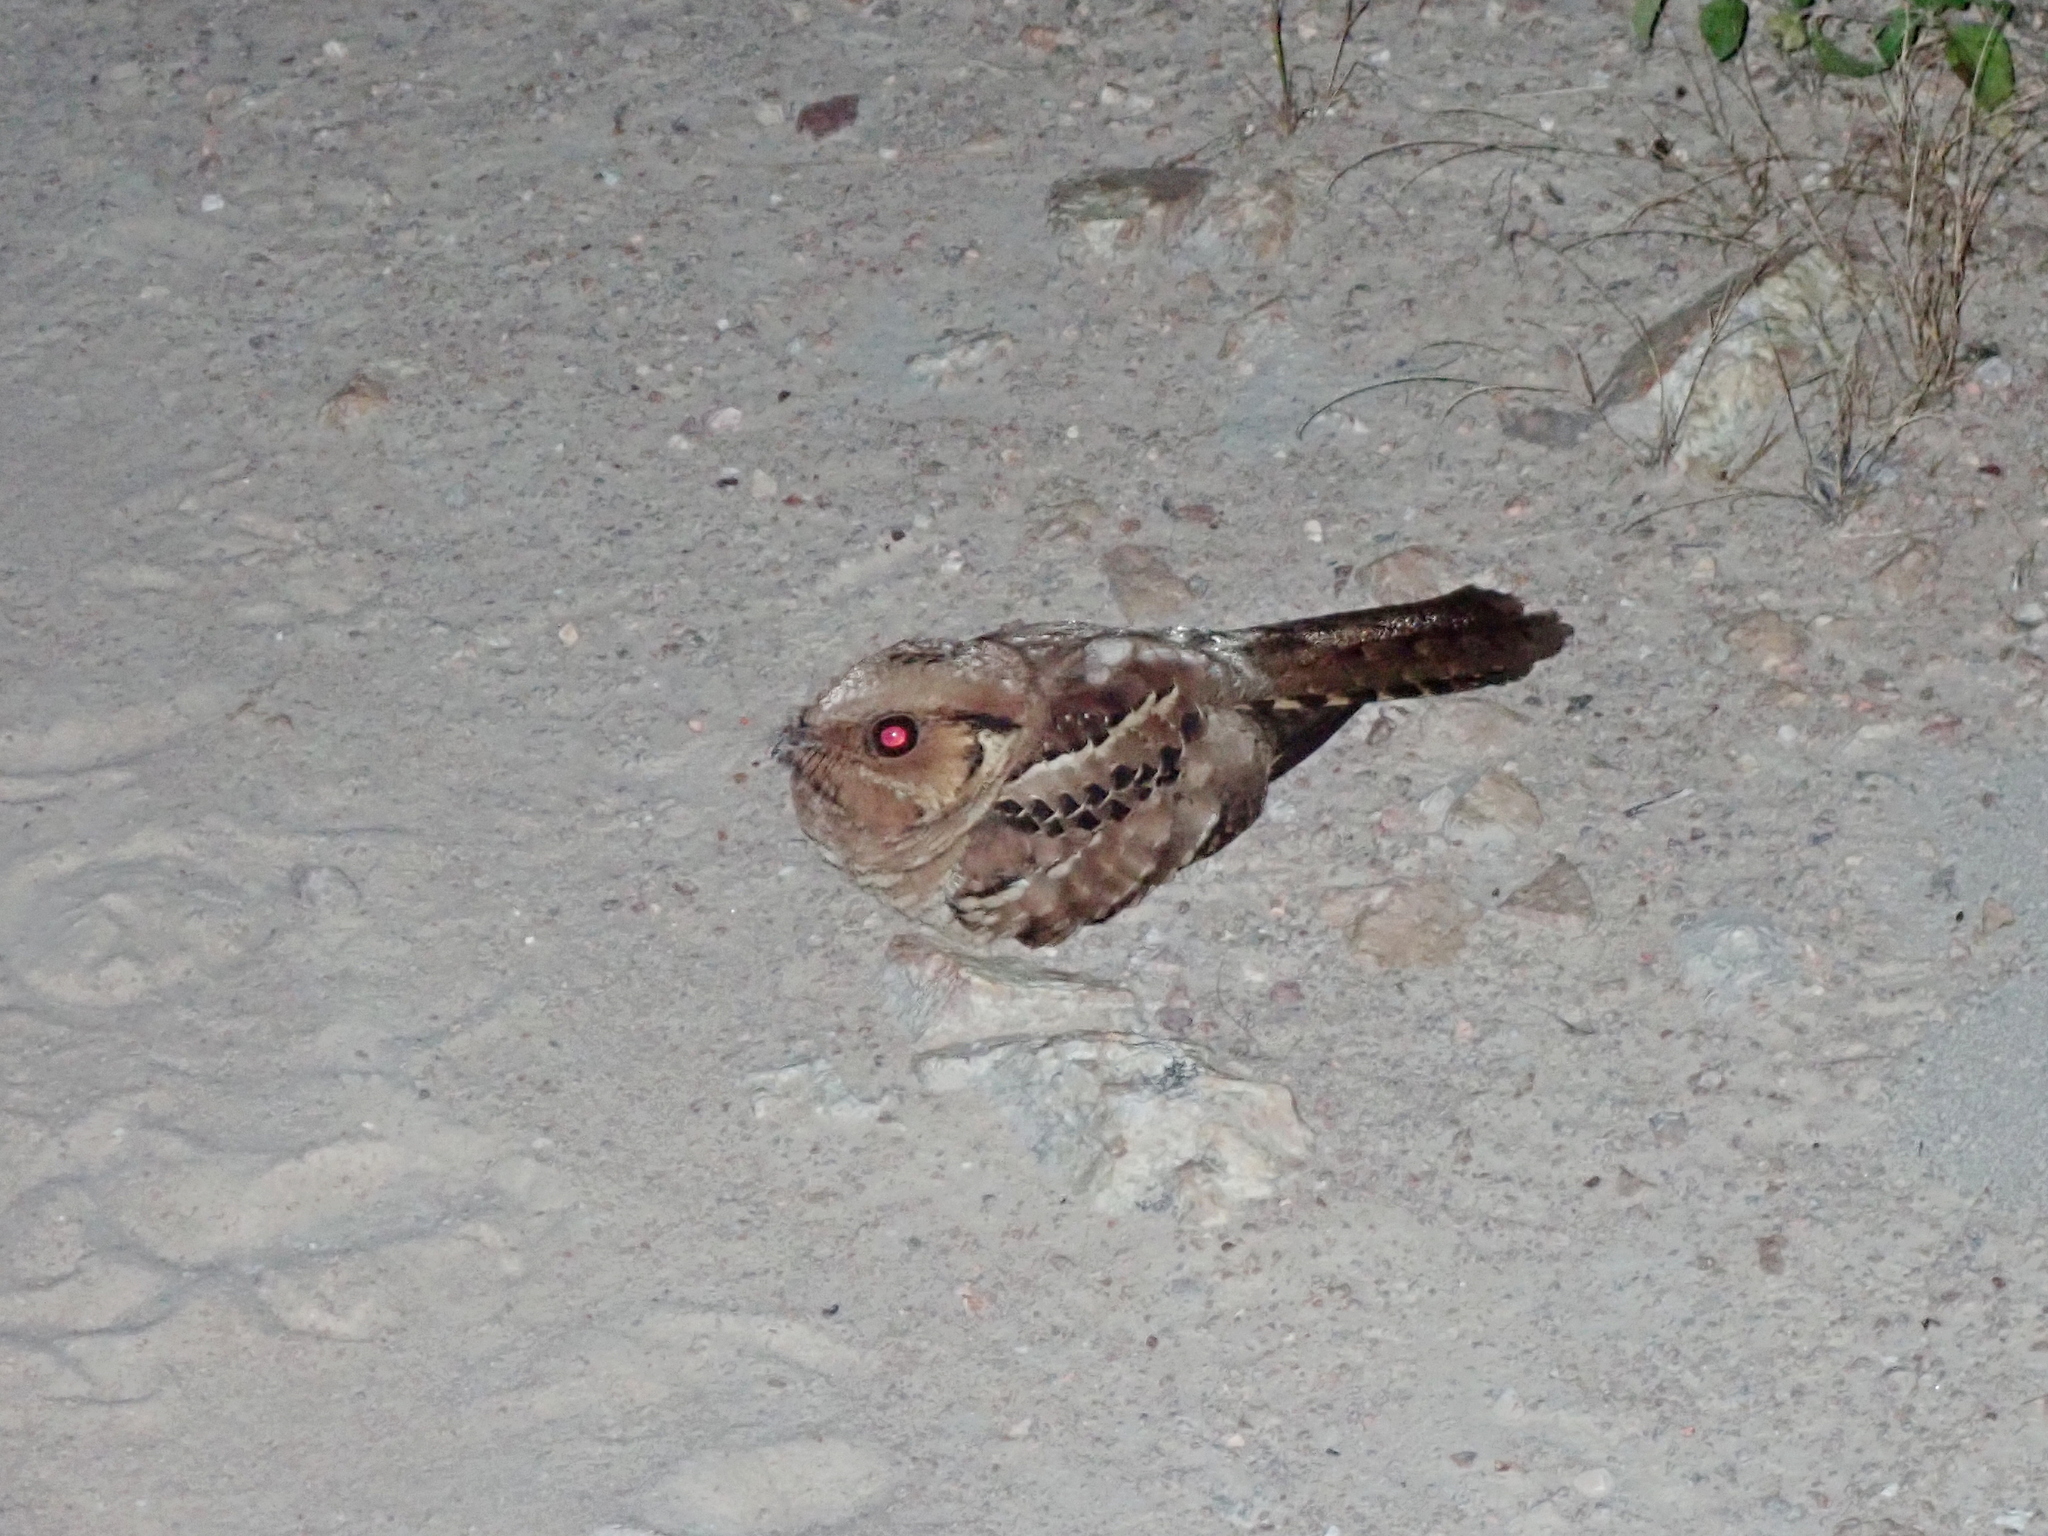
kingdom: Animalia
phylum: Chordata
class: Aves
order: Caprimulgiformes
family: Caprimulgidae
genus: Nyctidromus
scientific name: Nyctidromus albicollis
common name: Pauraque
